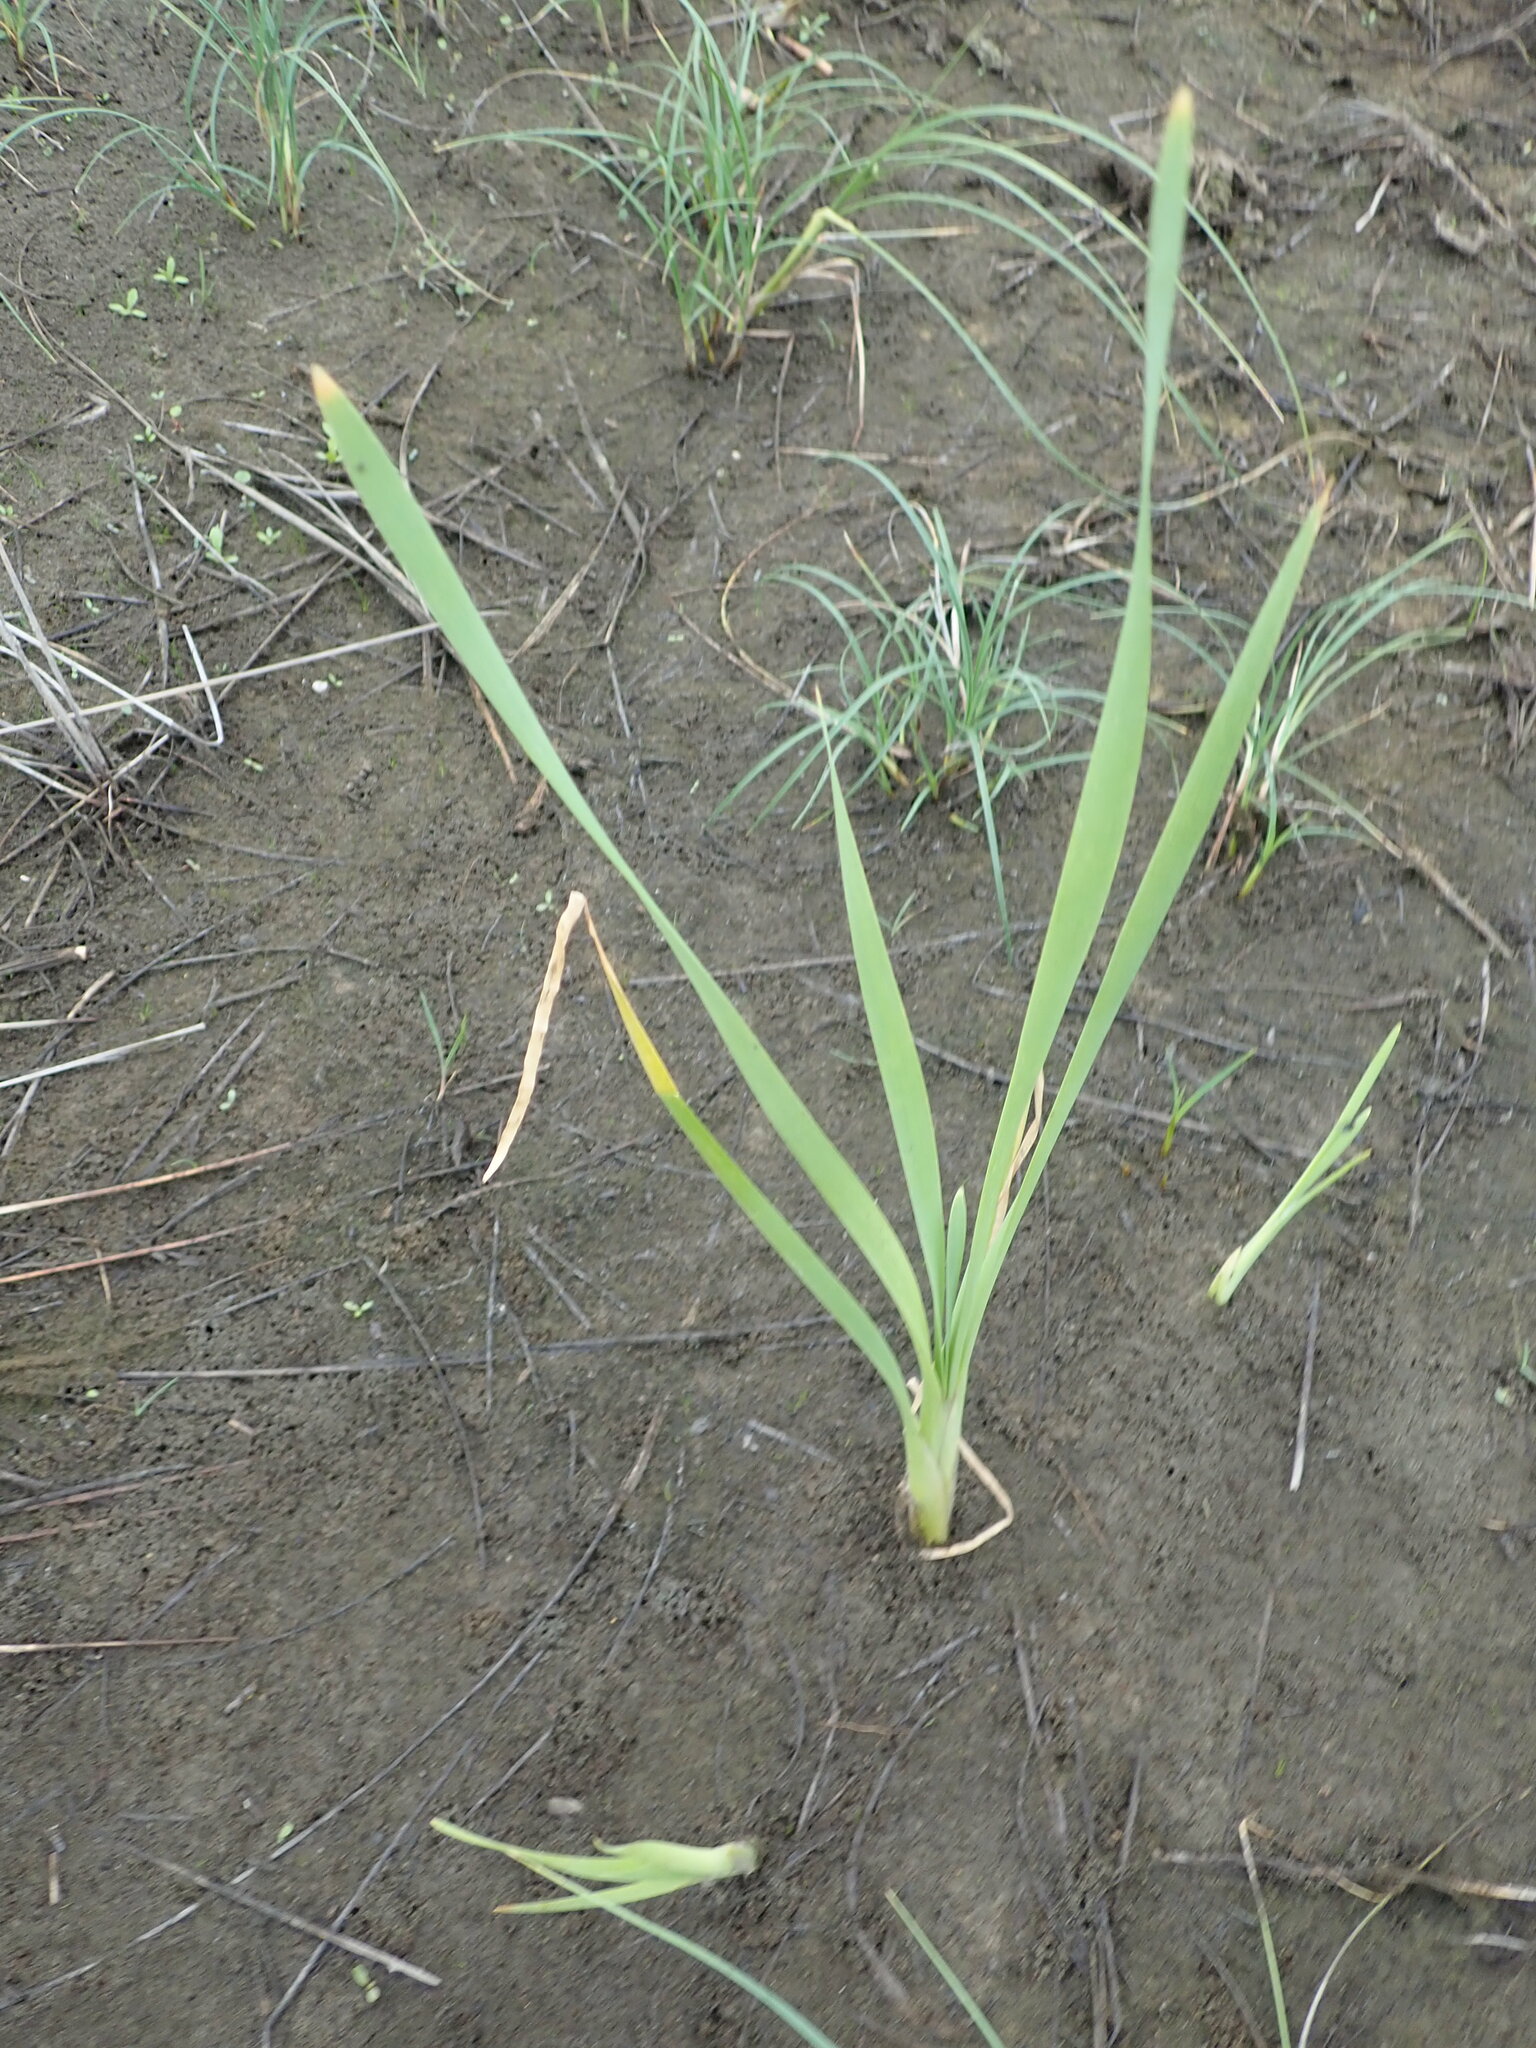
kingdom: Plantae
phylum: Tracheophyta
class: Liliopsida
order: Poales
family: Typhaceae
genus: Typha
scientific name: Typha orientalis
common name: Bullrush
